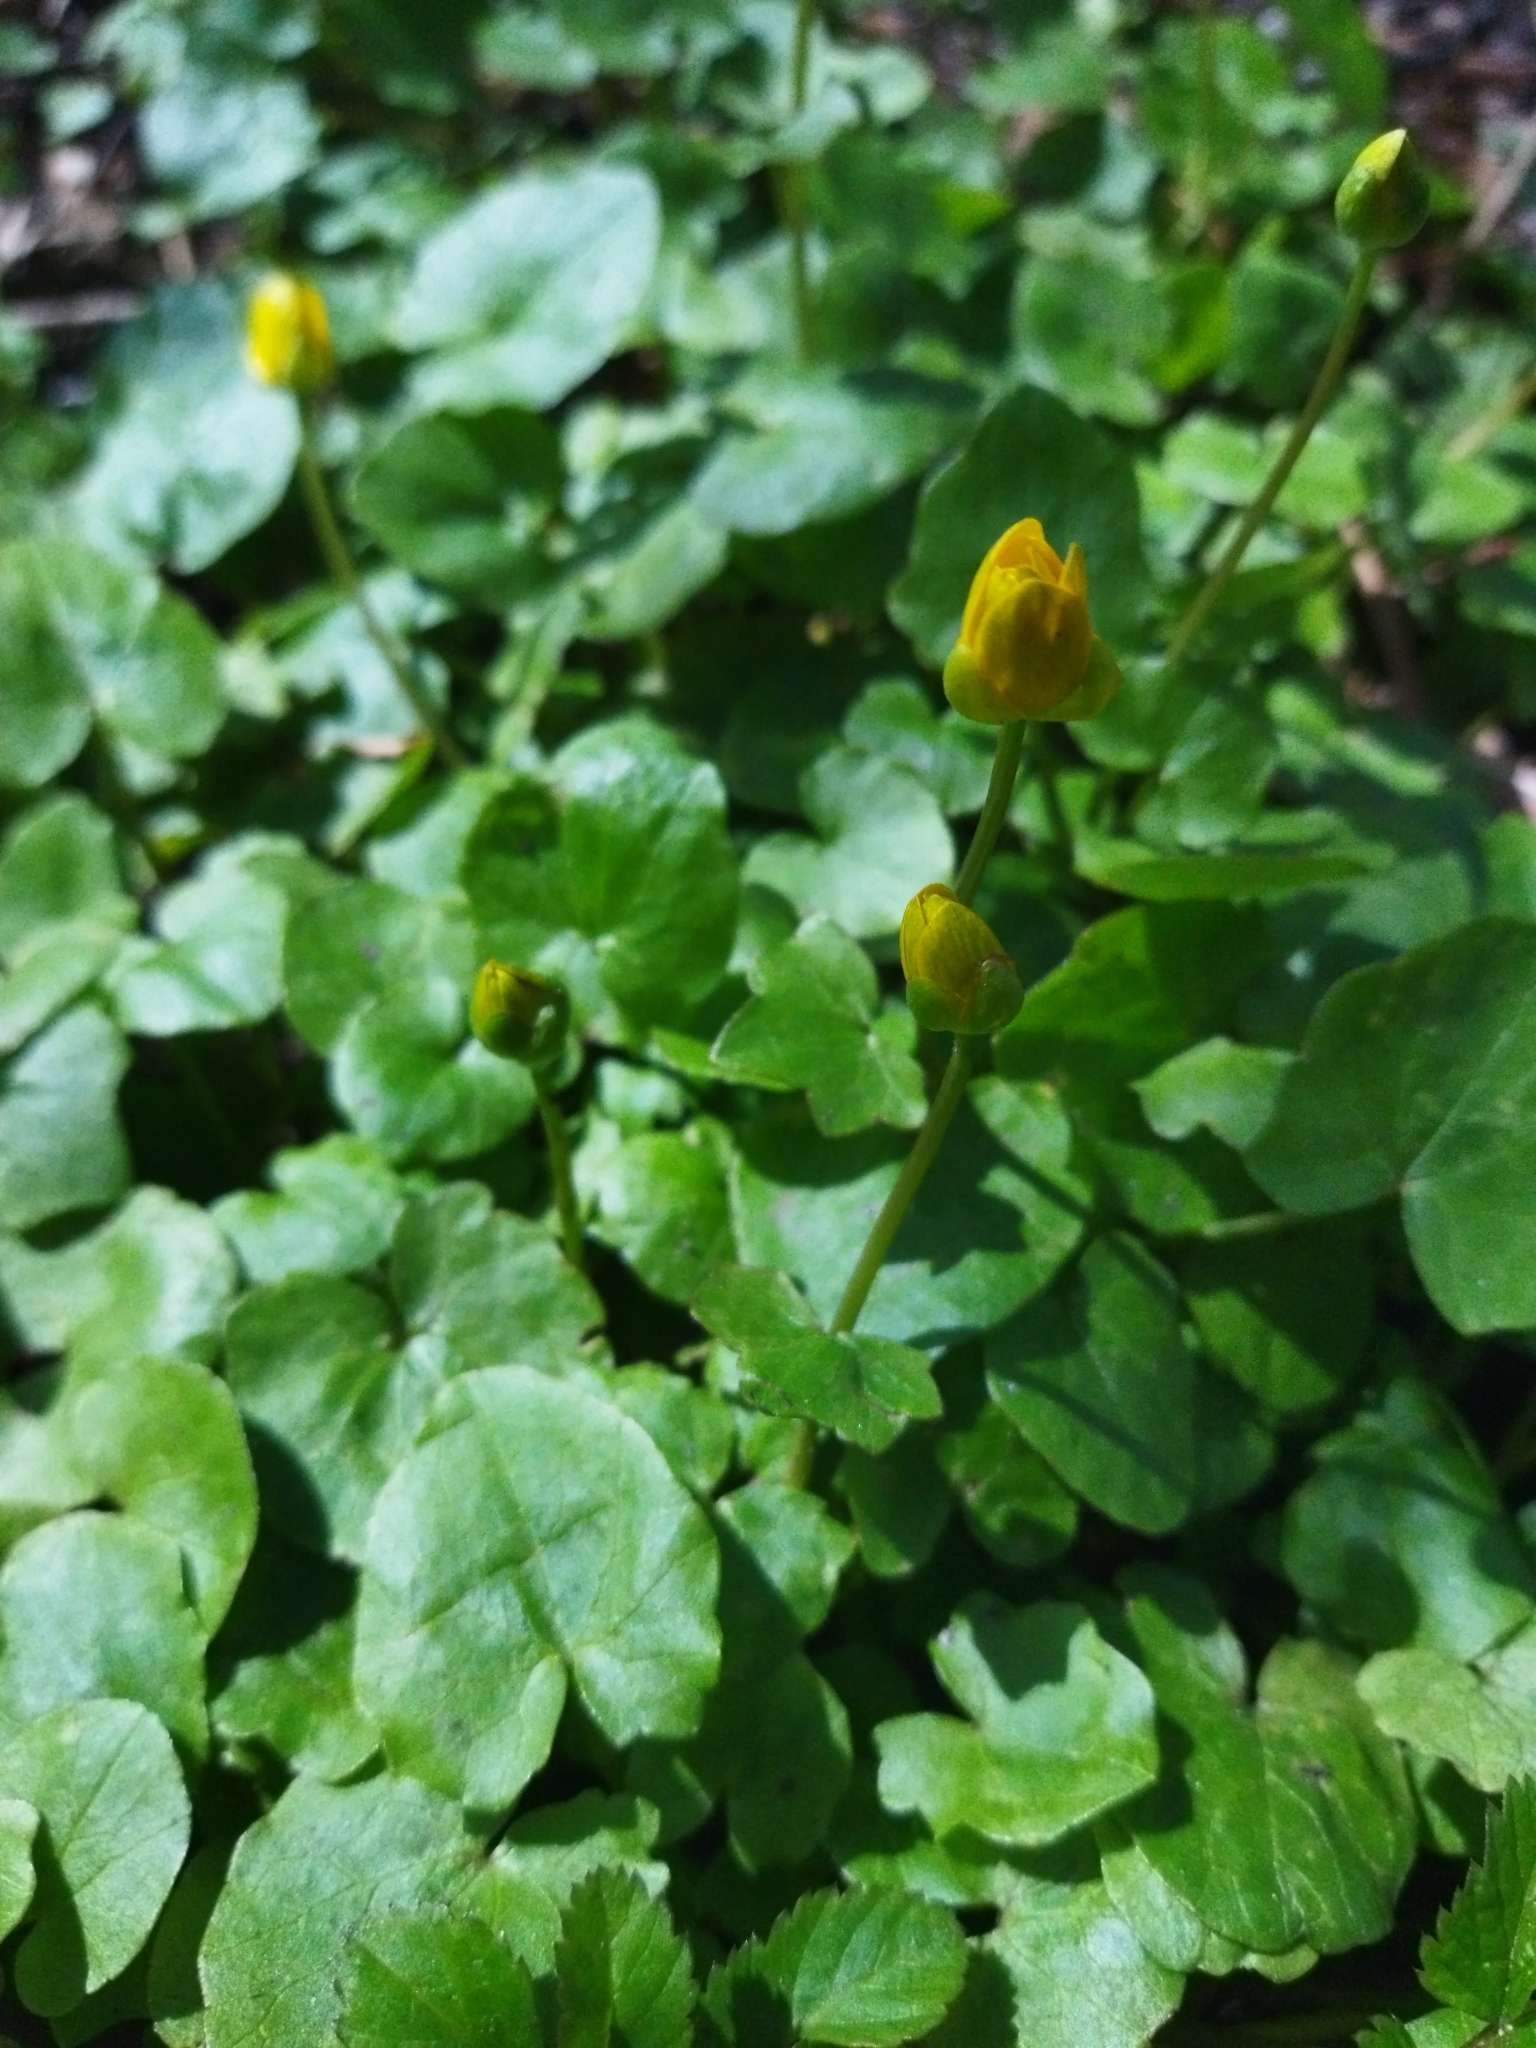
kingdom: Plantae
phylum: Tracheophyta
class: Magnoliopsida
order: Ranunculales
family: Ranunculaceae
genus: Ficaria
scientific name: Ficaria verna
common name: Lesser celandine
